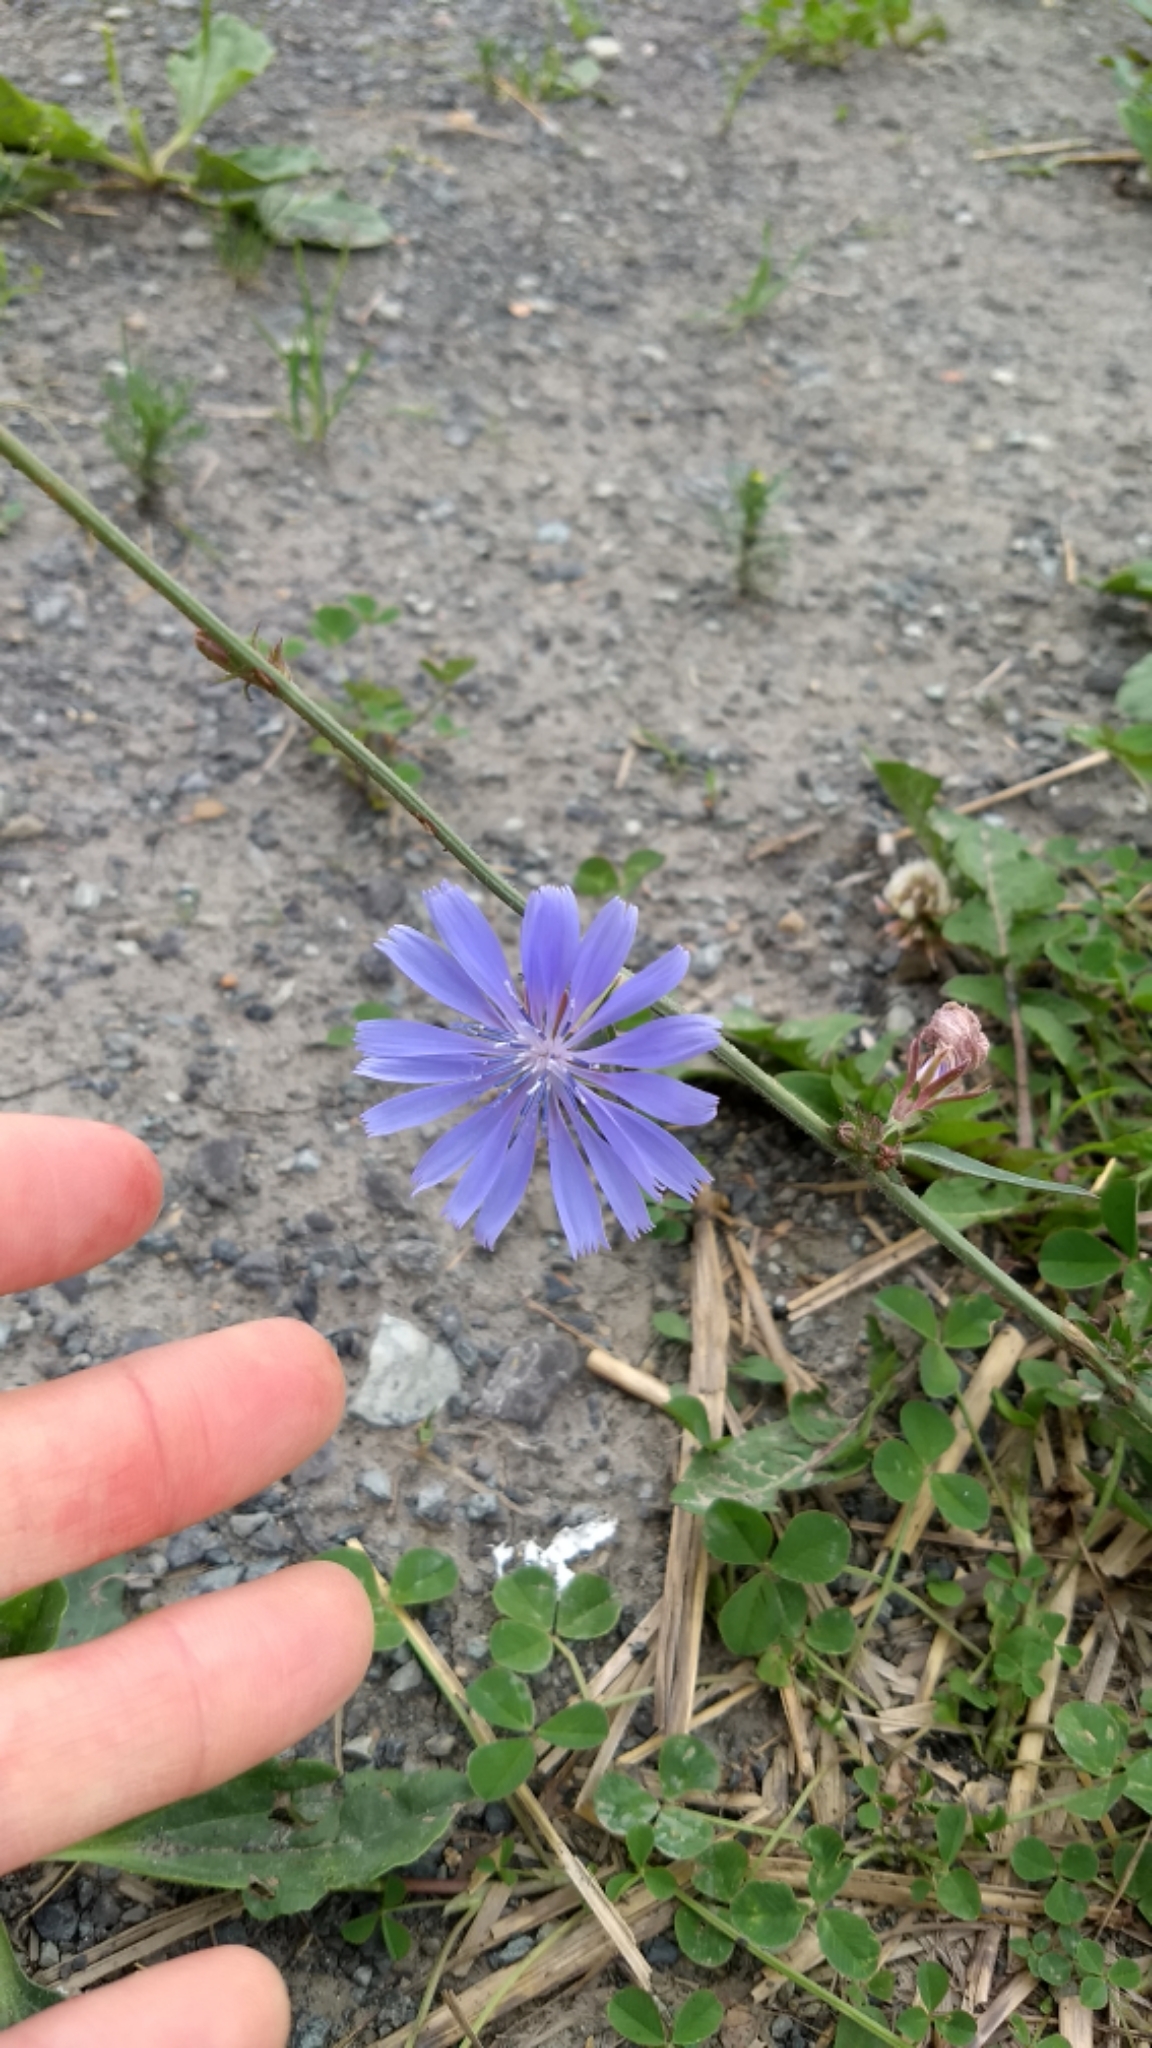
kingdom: Plantae
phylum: Tracheophyta
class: Magnoliopsida
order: Asterales
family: Asteraceae
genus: Cichorium
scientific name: Cichorium intybus
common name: Chicory
